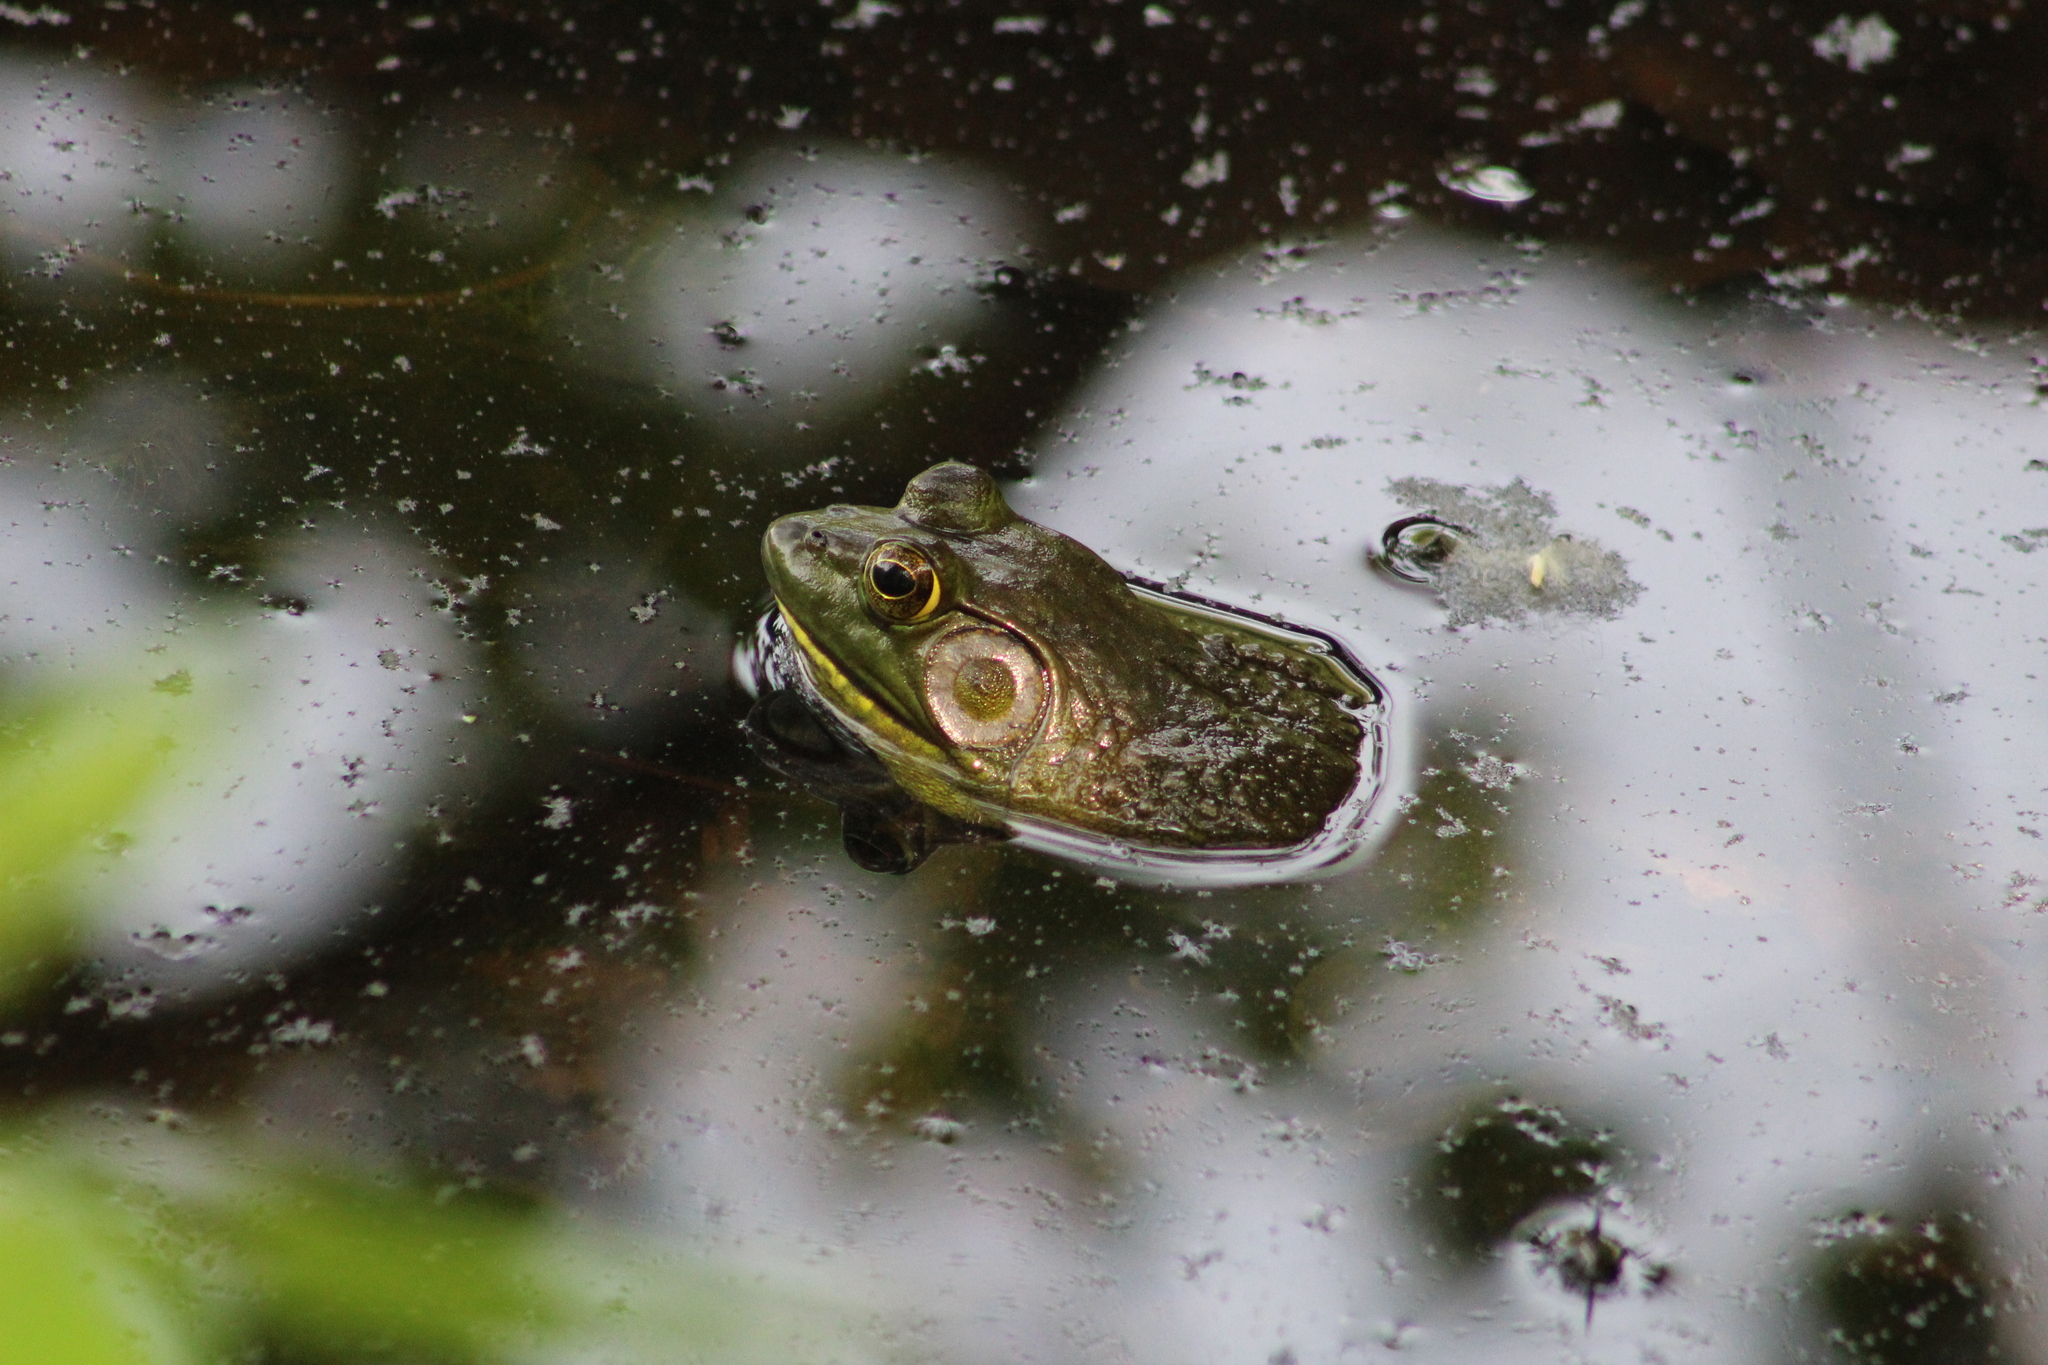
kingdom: Animalia
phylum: Chordata
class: Amphibia
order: Anura
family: Ranidae
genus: Lithobates
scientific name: Lithobates catesbeianus
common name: American bullfrog
